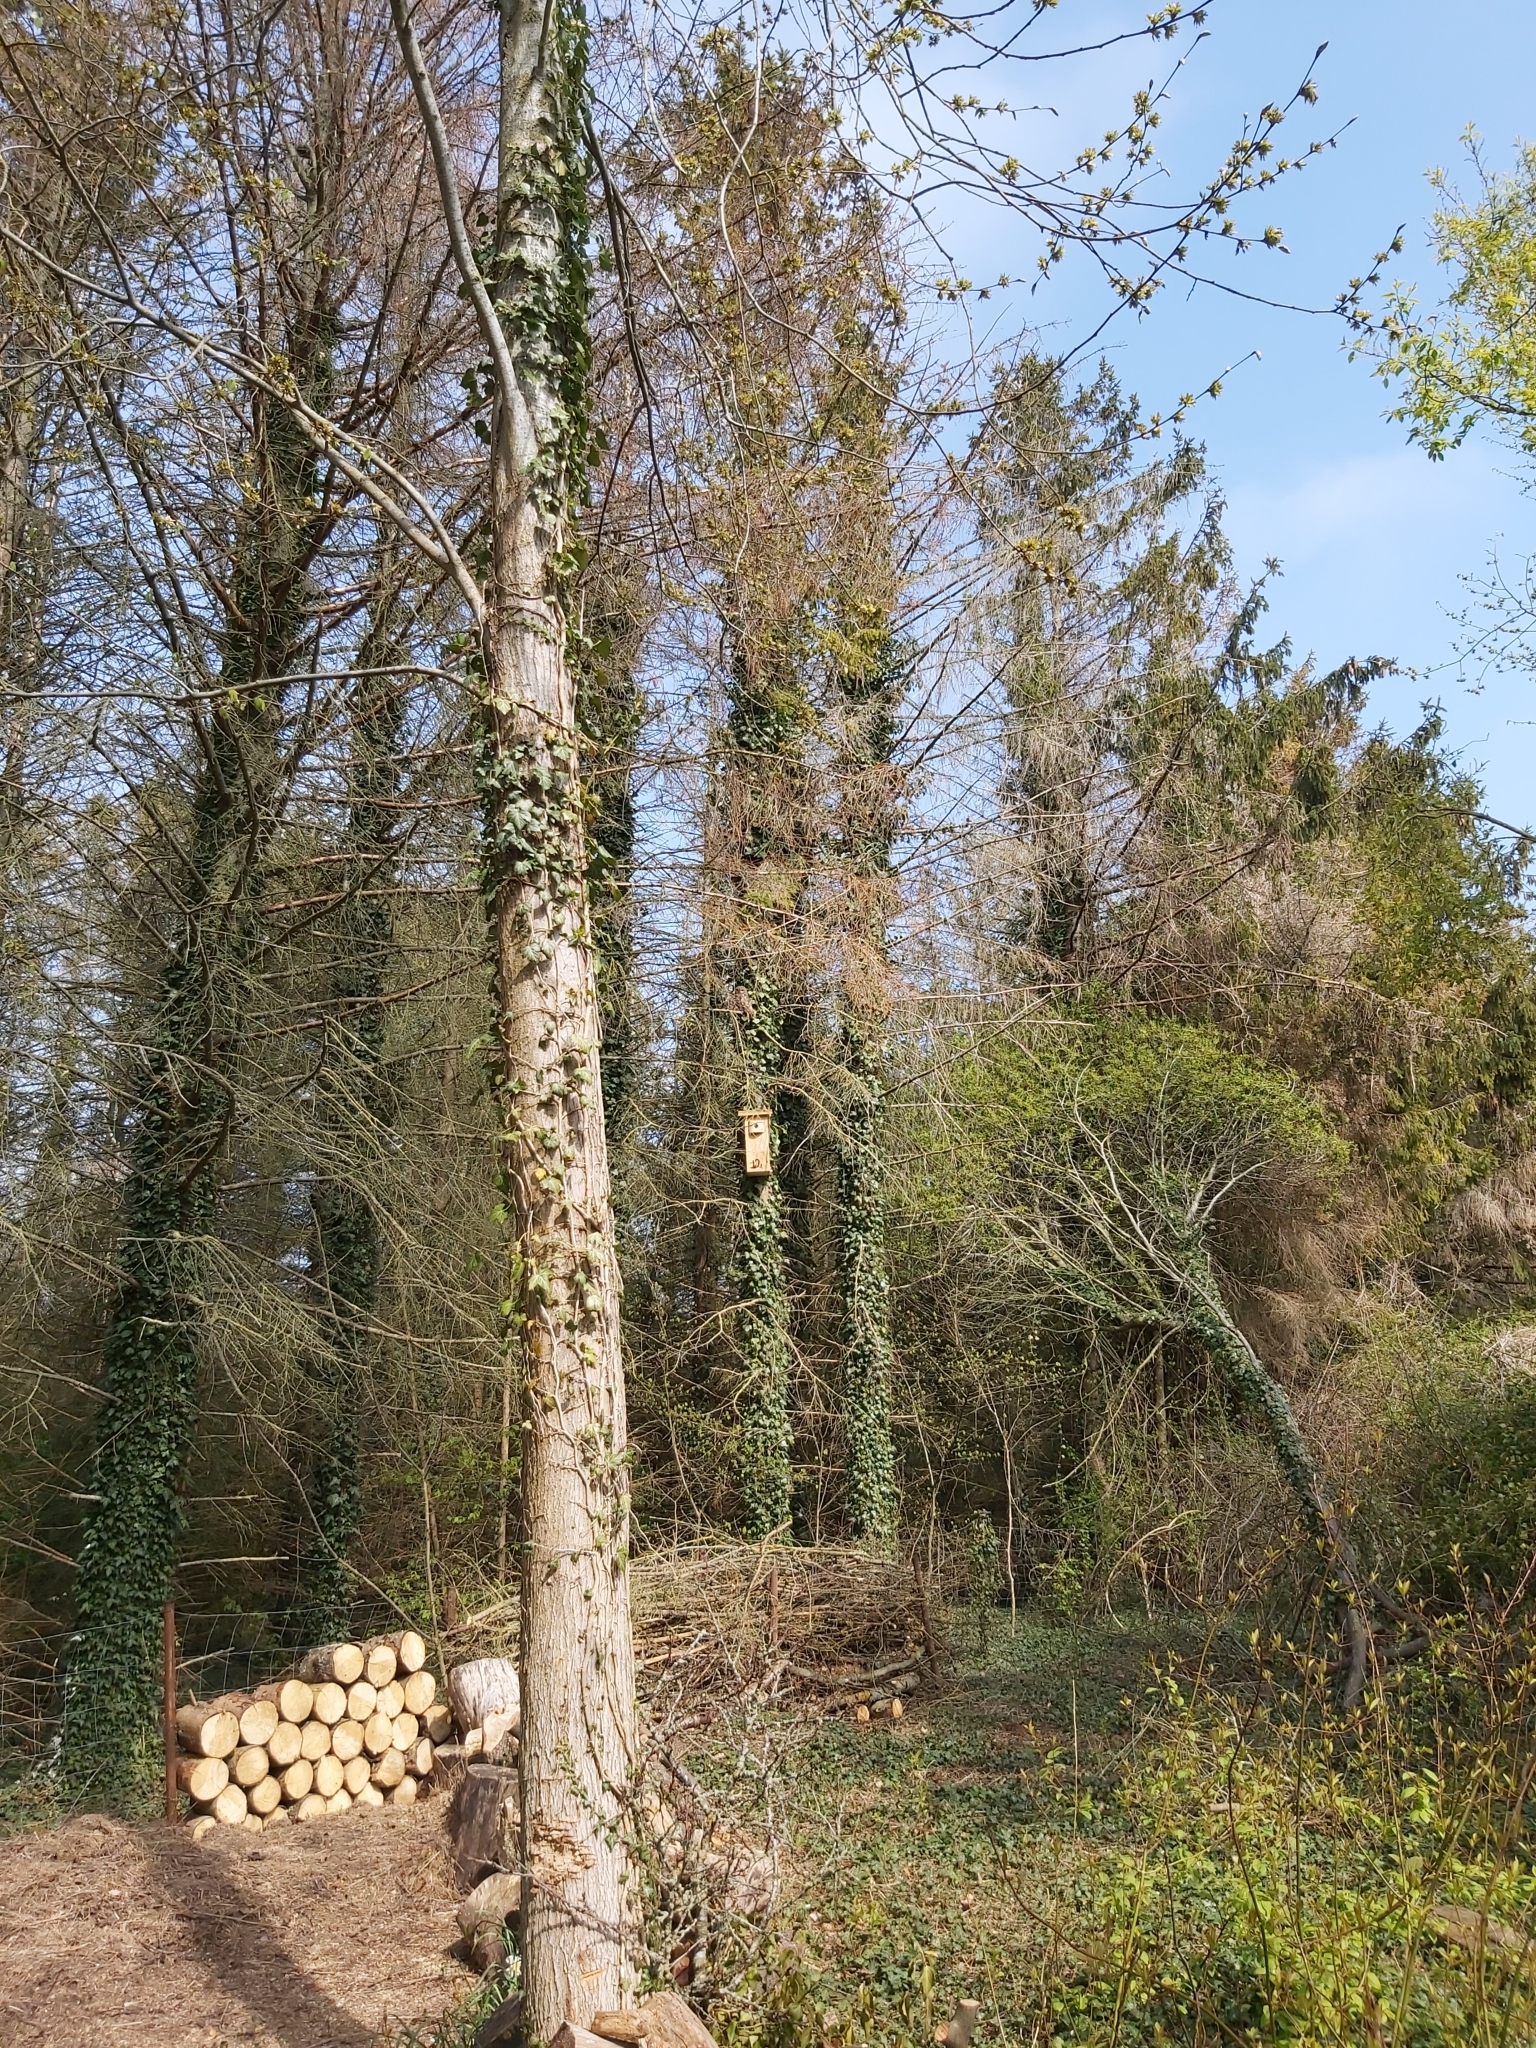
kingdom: Animalia
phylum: Chordata
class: Aves
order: Strigiformes
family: Strigidae
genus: Strix
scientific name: Strix aluco
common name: Tawny owl
